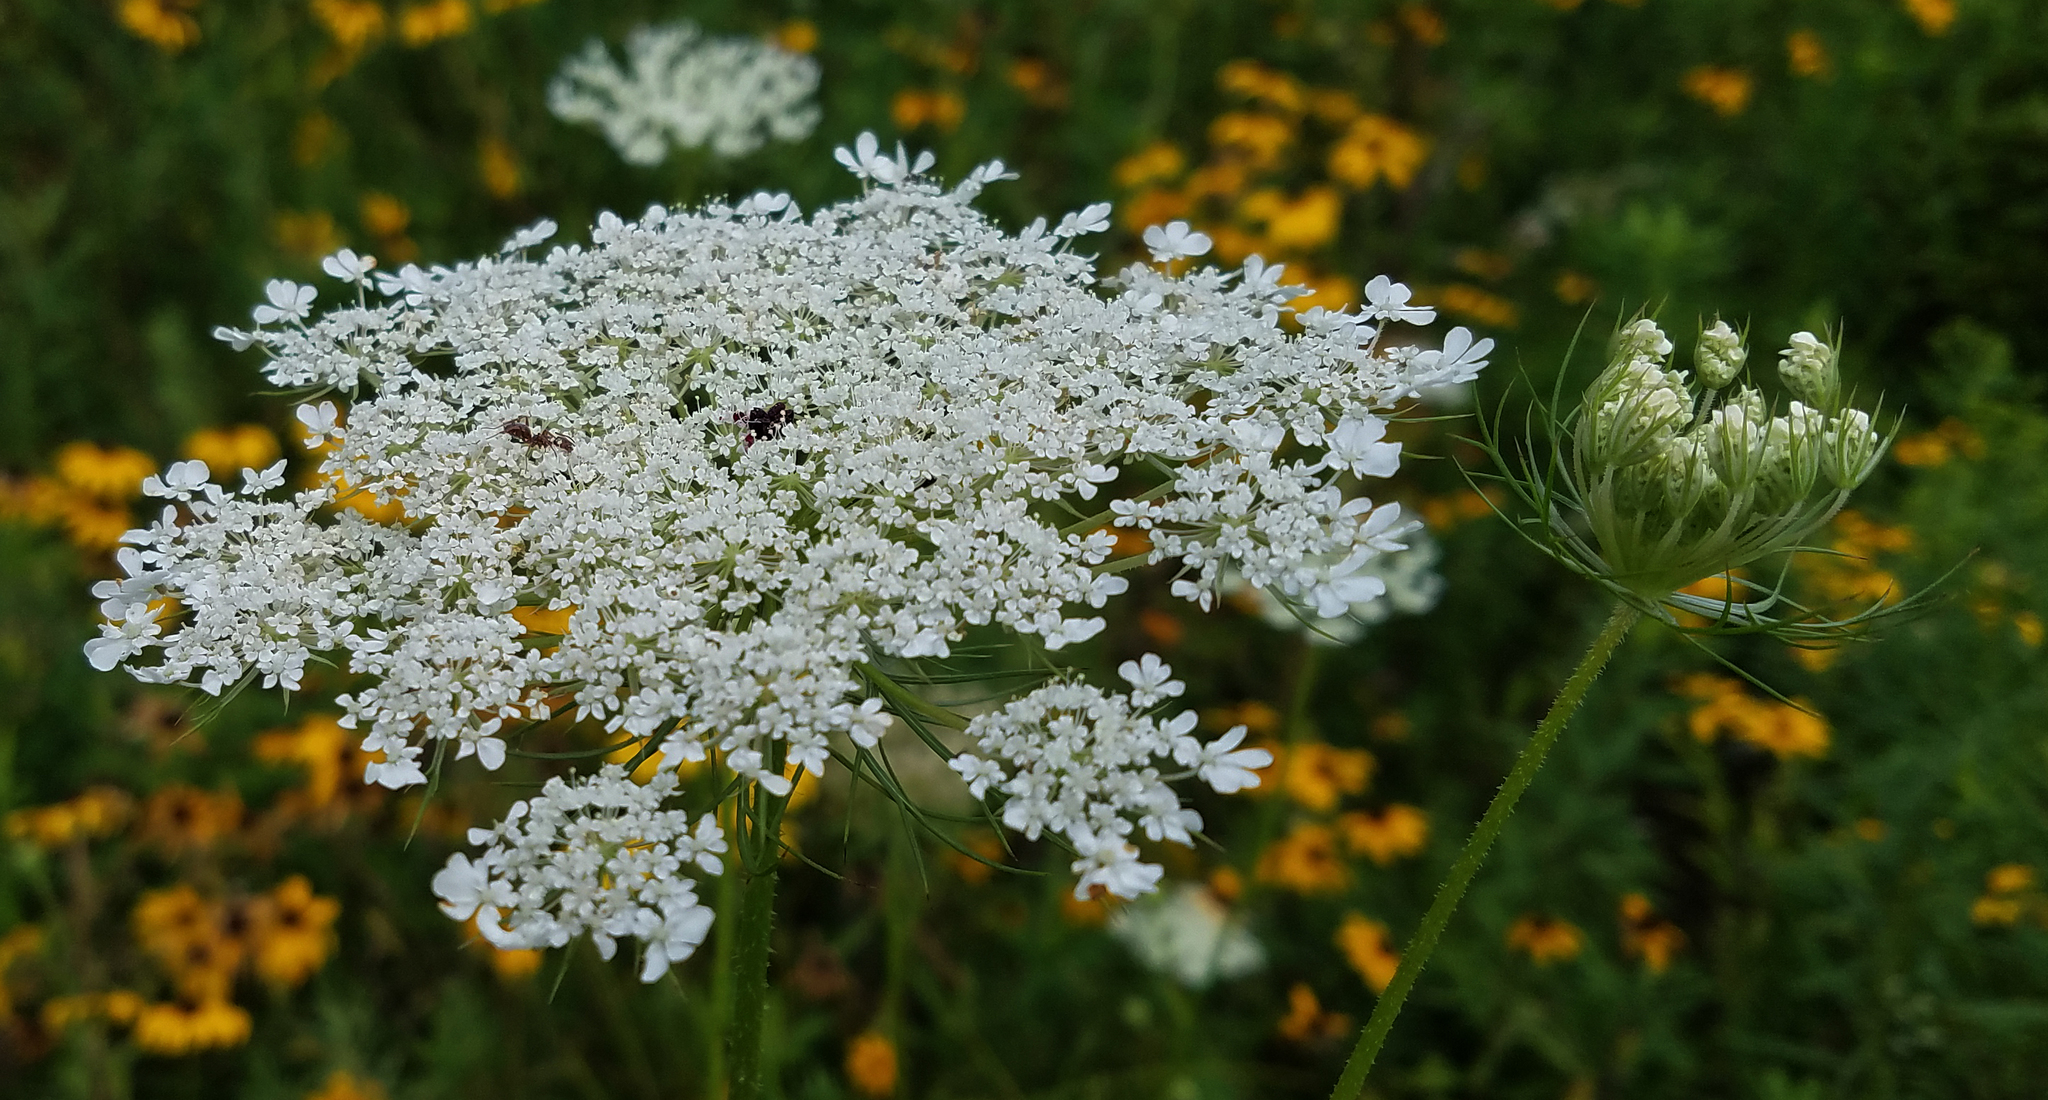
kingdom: Plantae
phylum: Tracheophyta
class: Magnoliopsida
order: Apiales
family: Apiaceae
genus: Daucus
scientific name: Daucus carota
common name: Wild carrot
